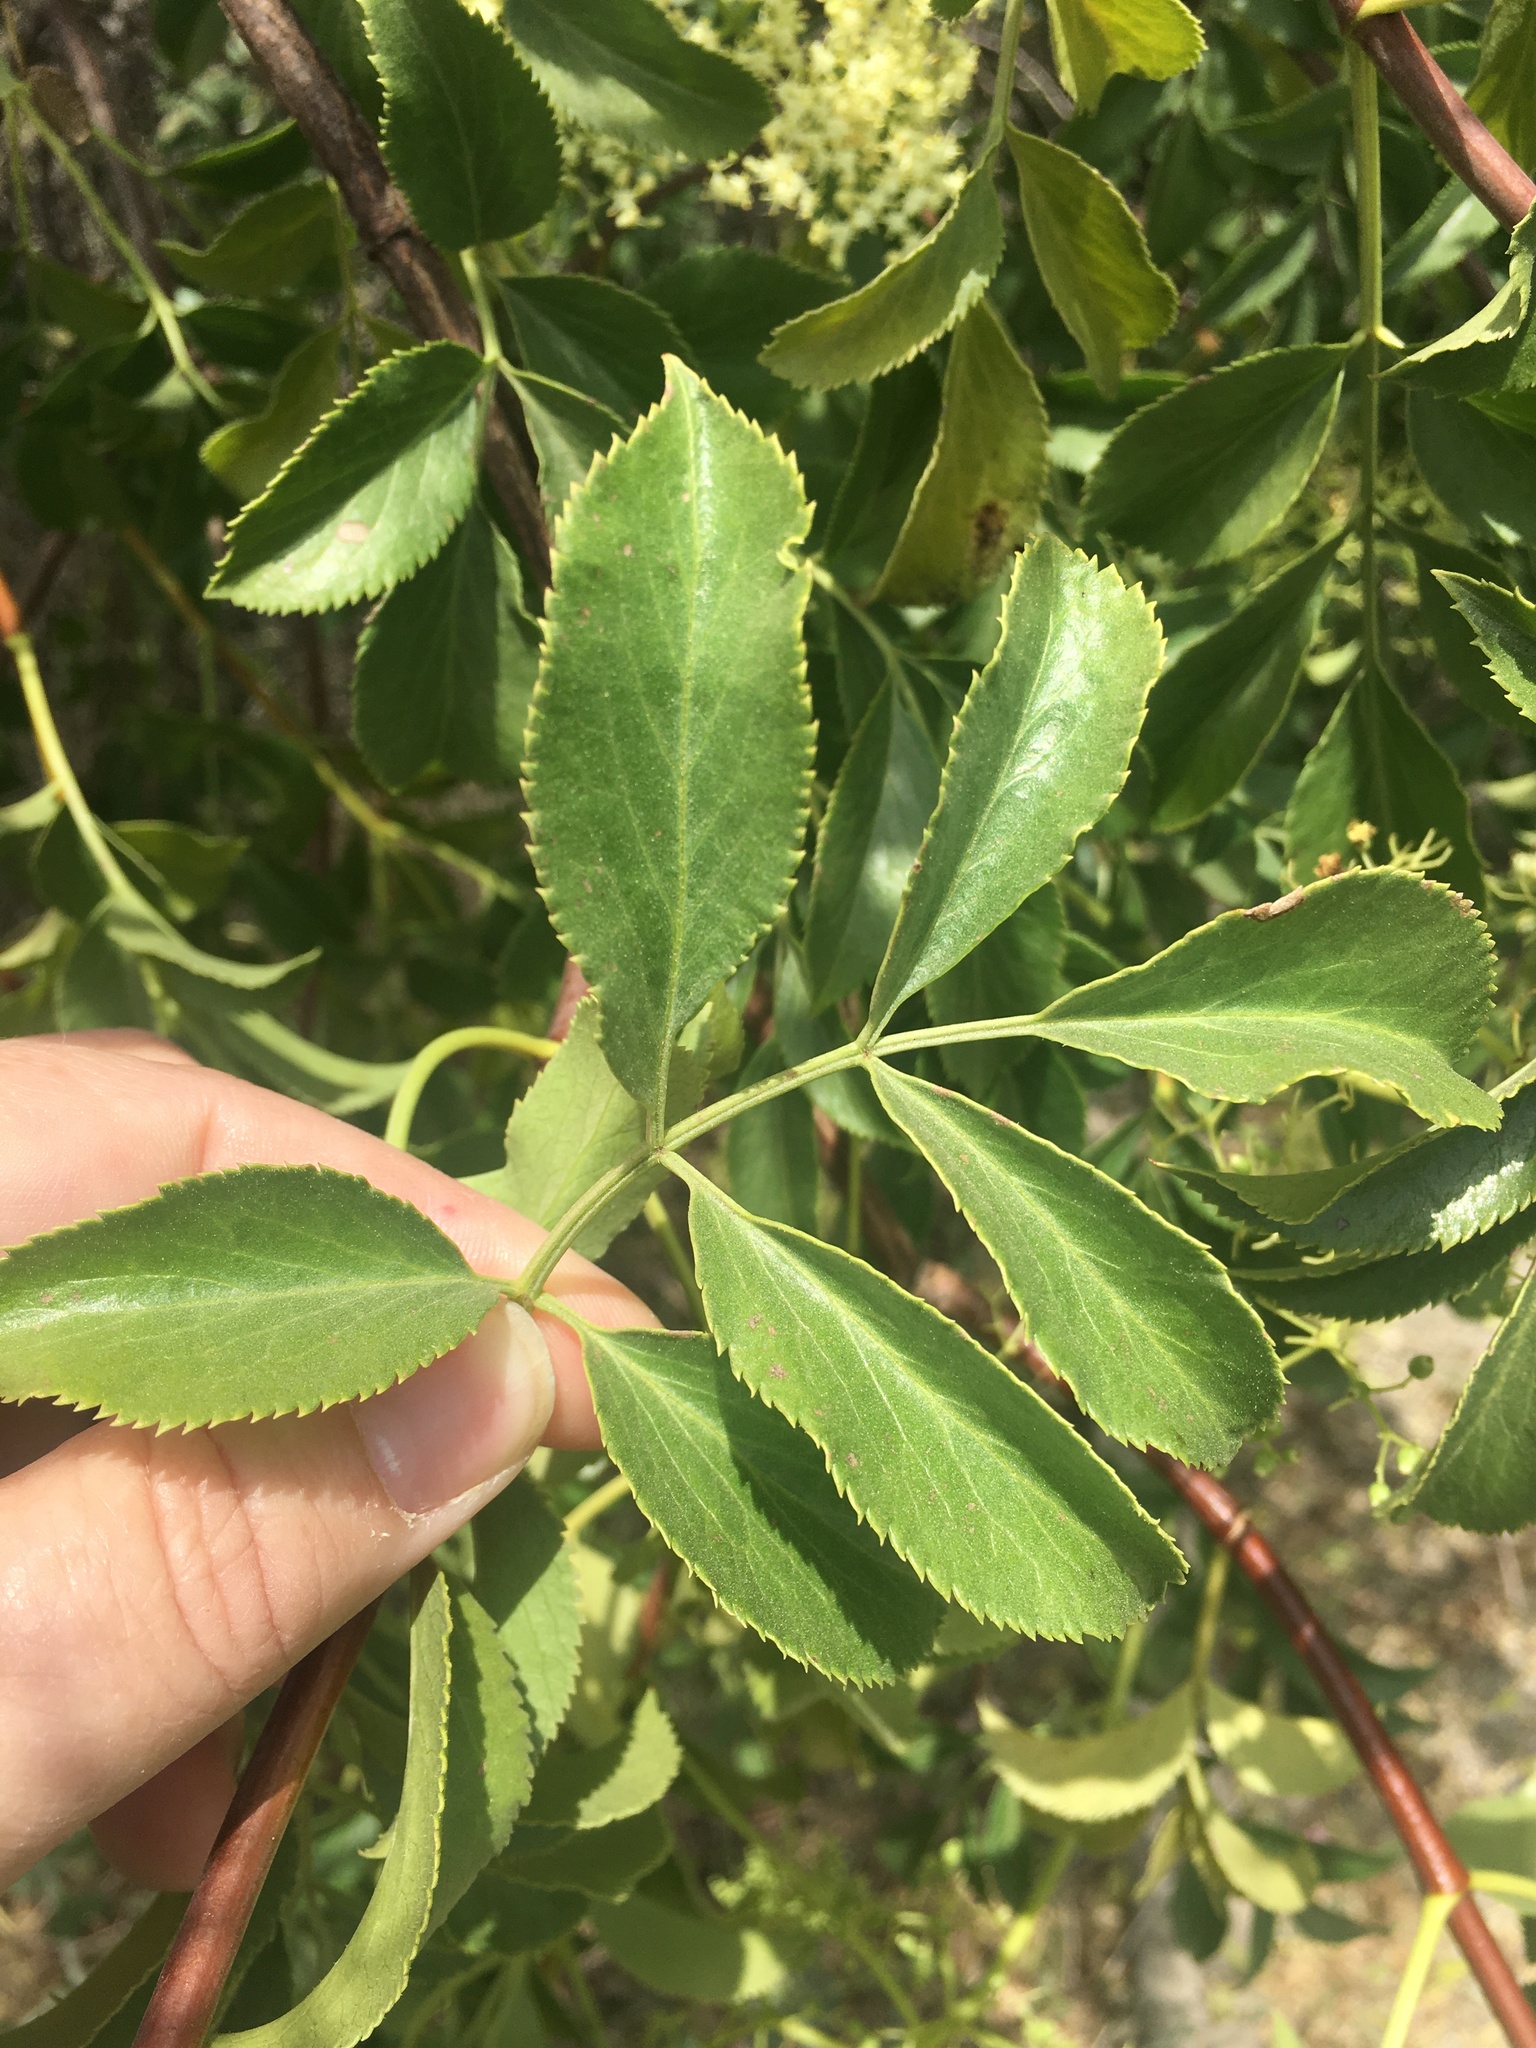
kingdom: Plantae
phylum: Tracheophyta
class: Magnoliopsida
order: Dipsacales
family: Viburnaceae
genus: Sambucus
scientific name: Sambucus cerulea
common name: Blue elder
